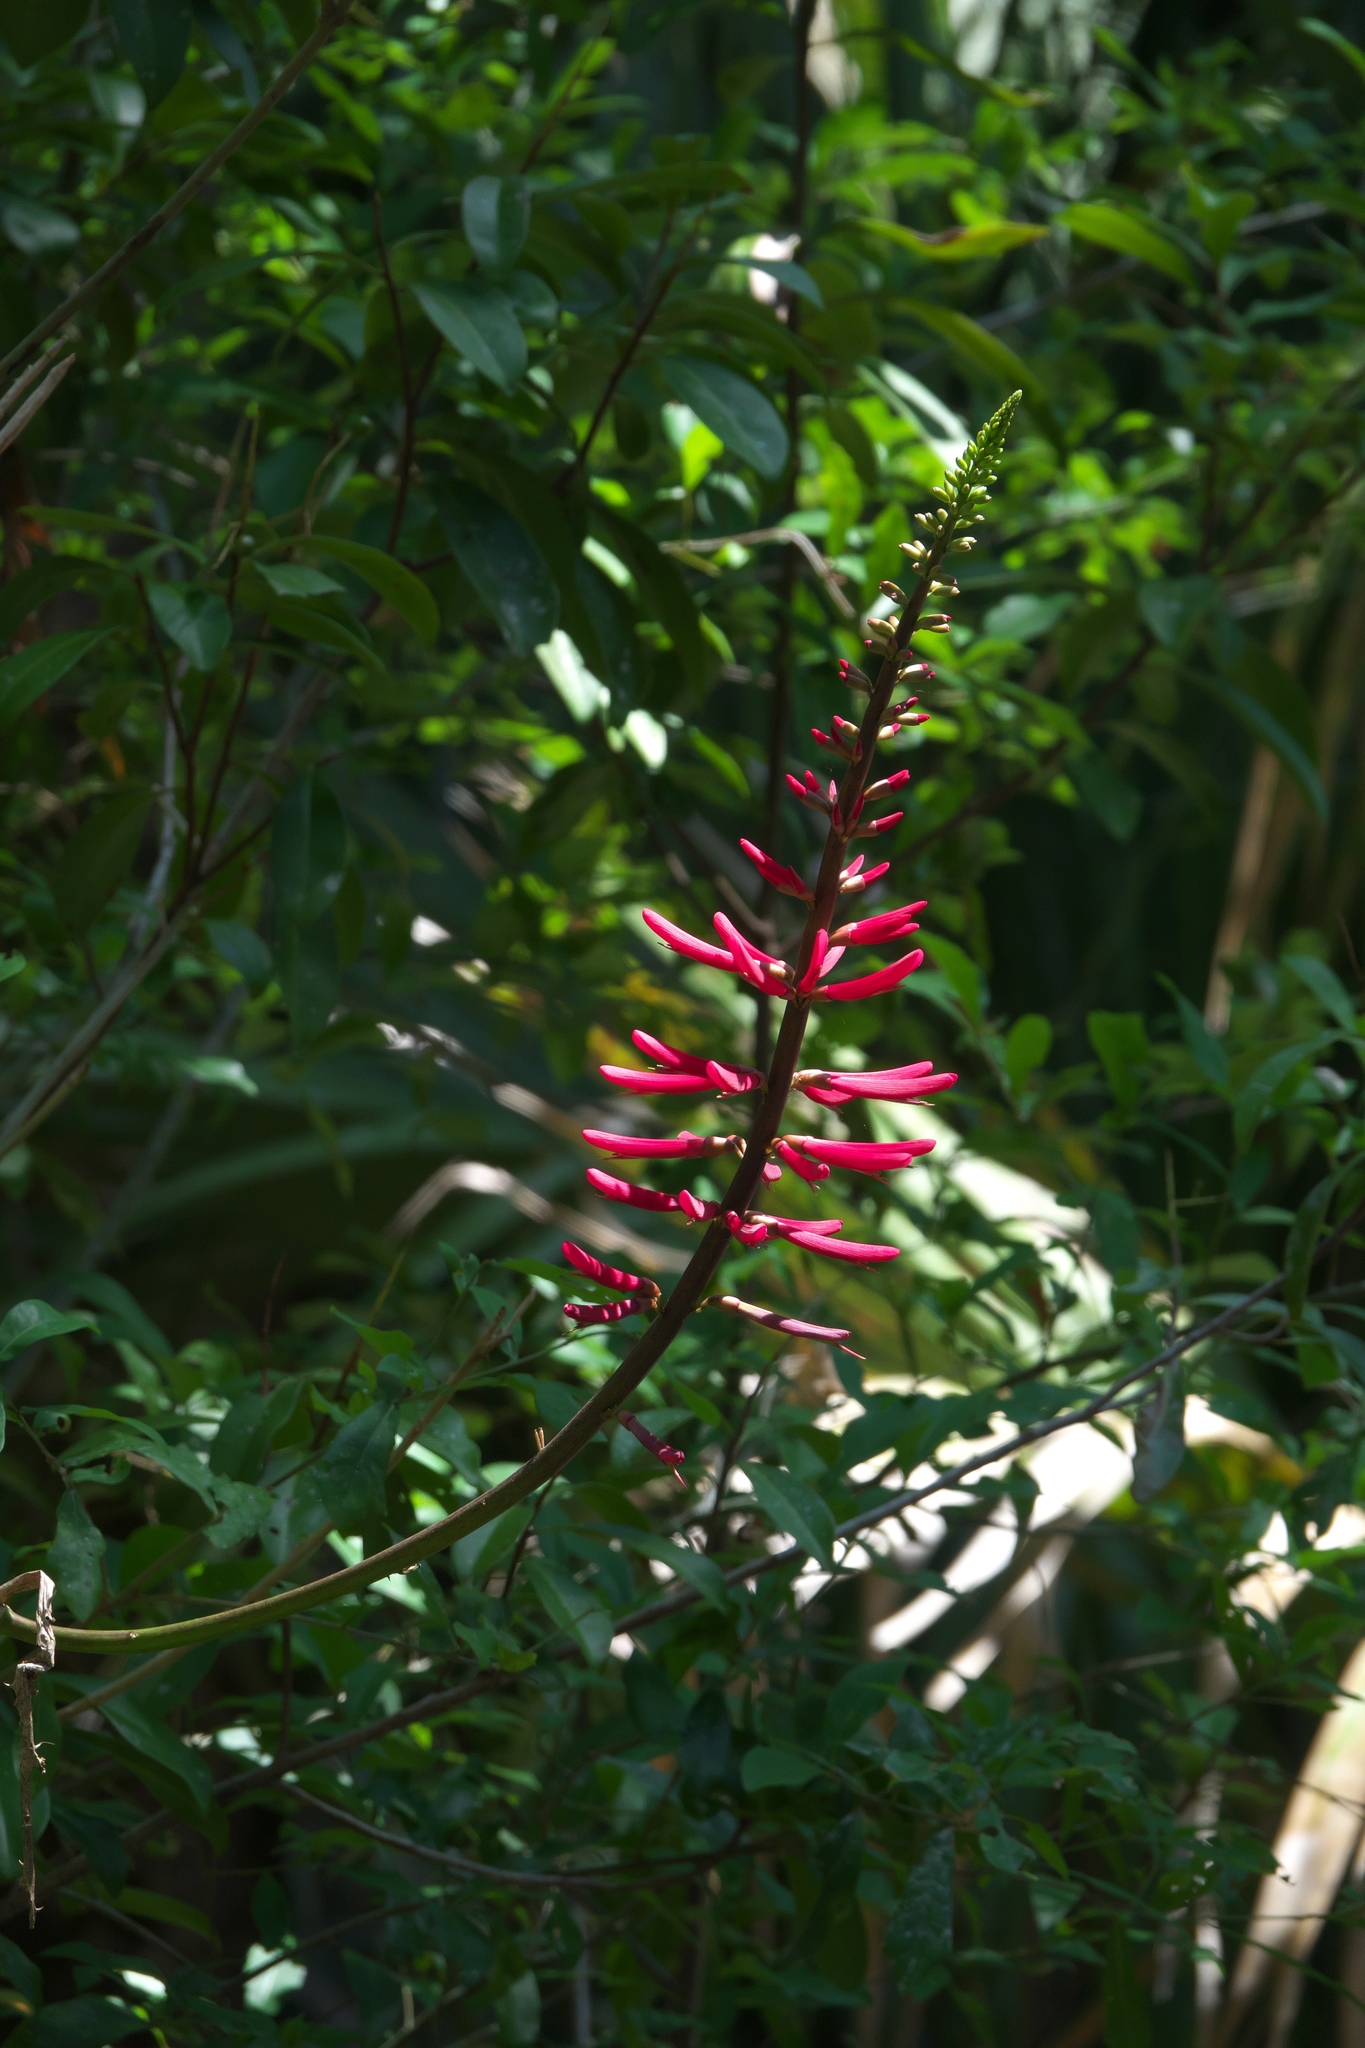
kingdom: Plantae
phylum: Tracheophyta
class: Magnoliopsida
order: Fabales
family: Fabaceae
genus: Erythrina
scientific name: Erythrina herbacea
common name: Coral-bean
